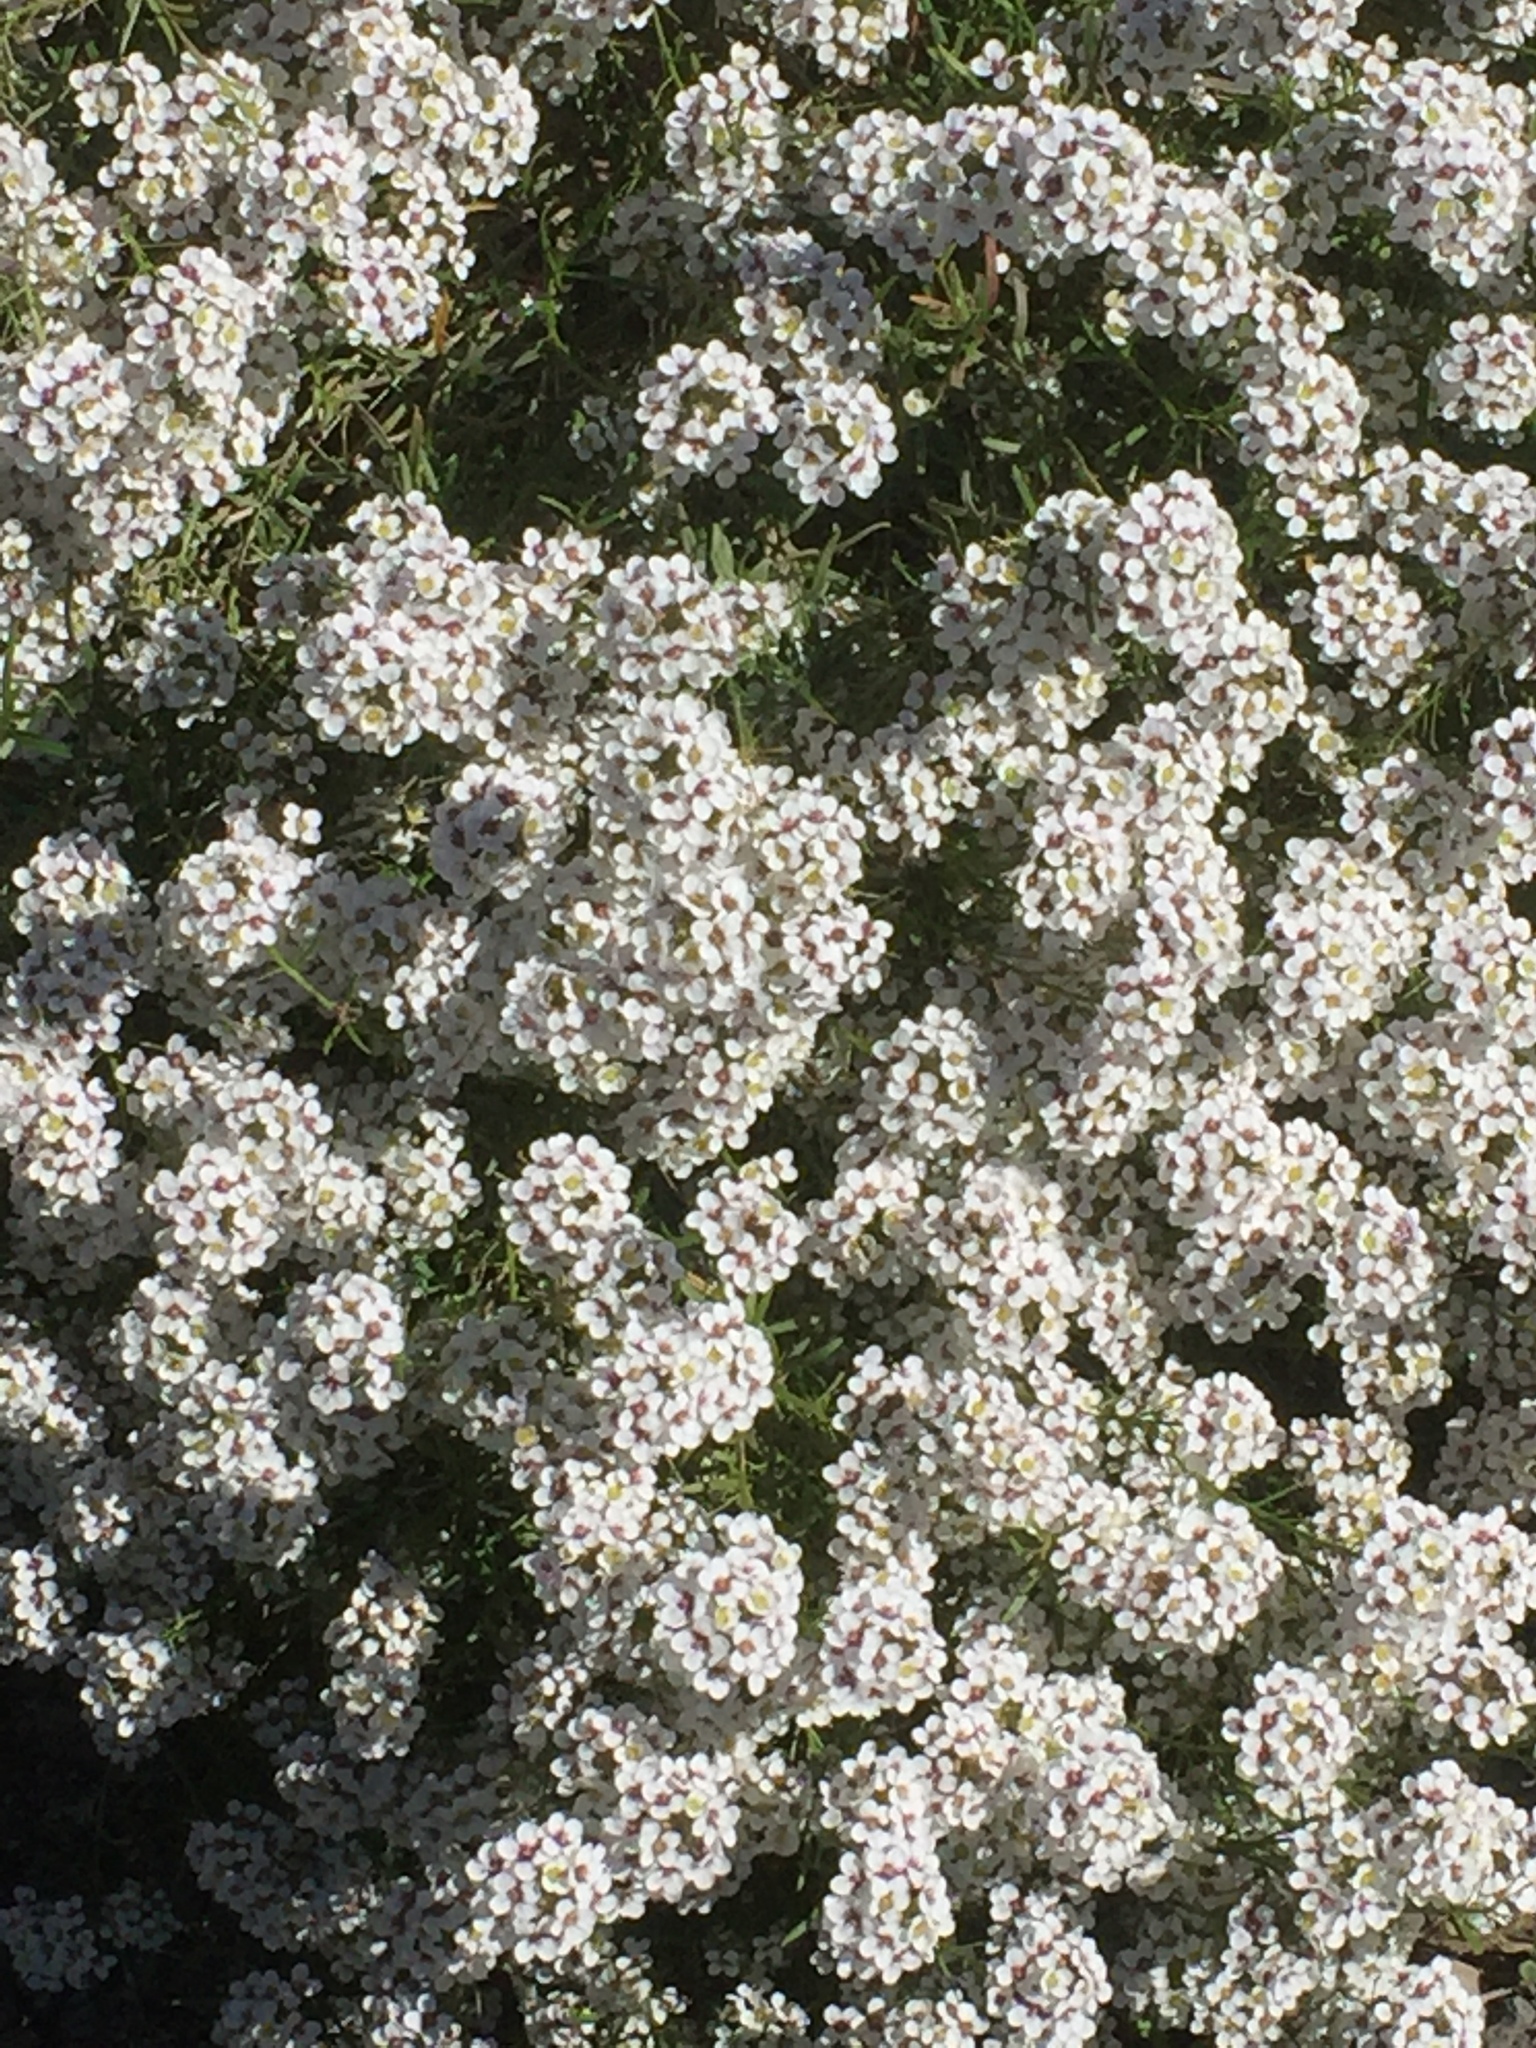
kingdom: Plantae
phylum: Tracheophyta
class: Magnoliopsida
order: Brassicales
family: Brassicaceae
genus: Lobularia
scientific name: Lobularia maritima
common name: Sweet alison
